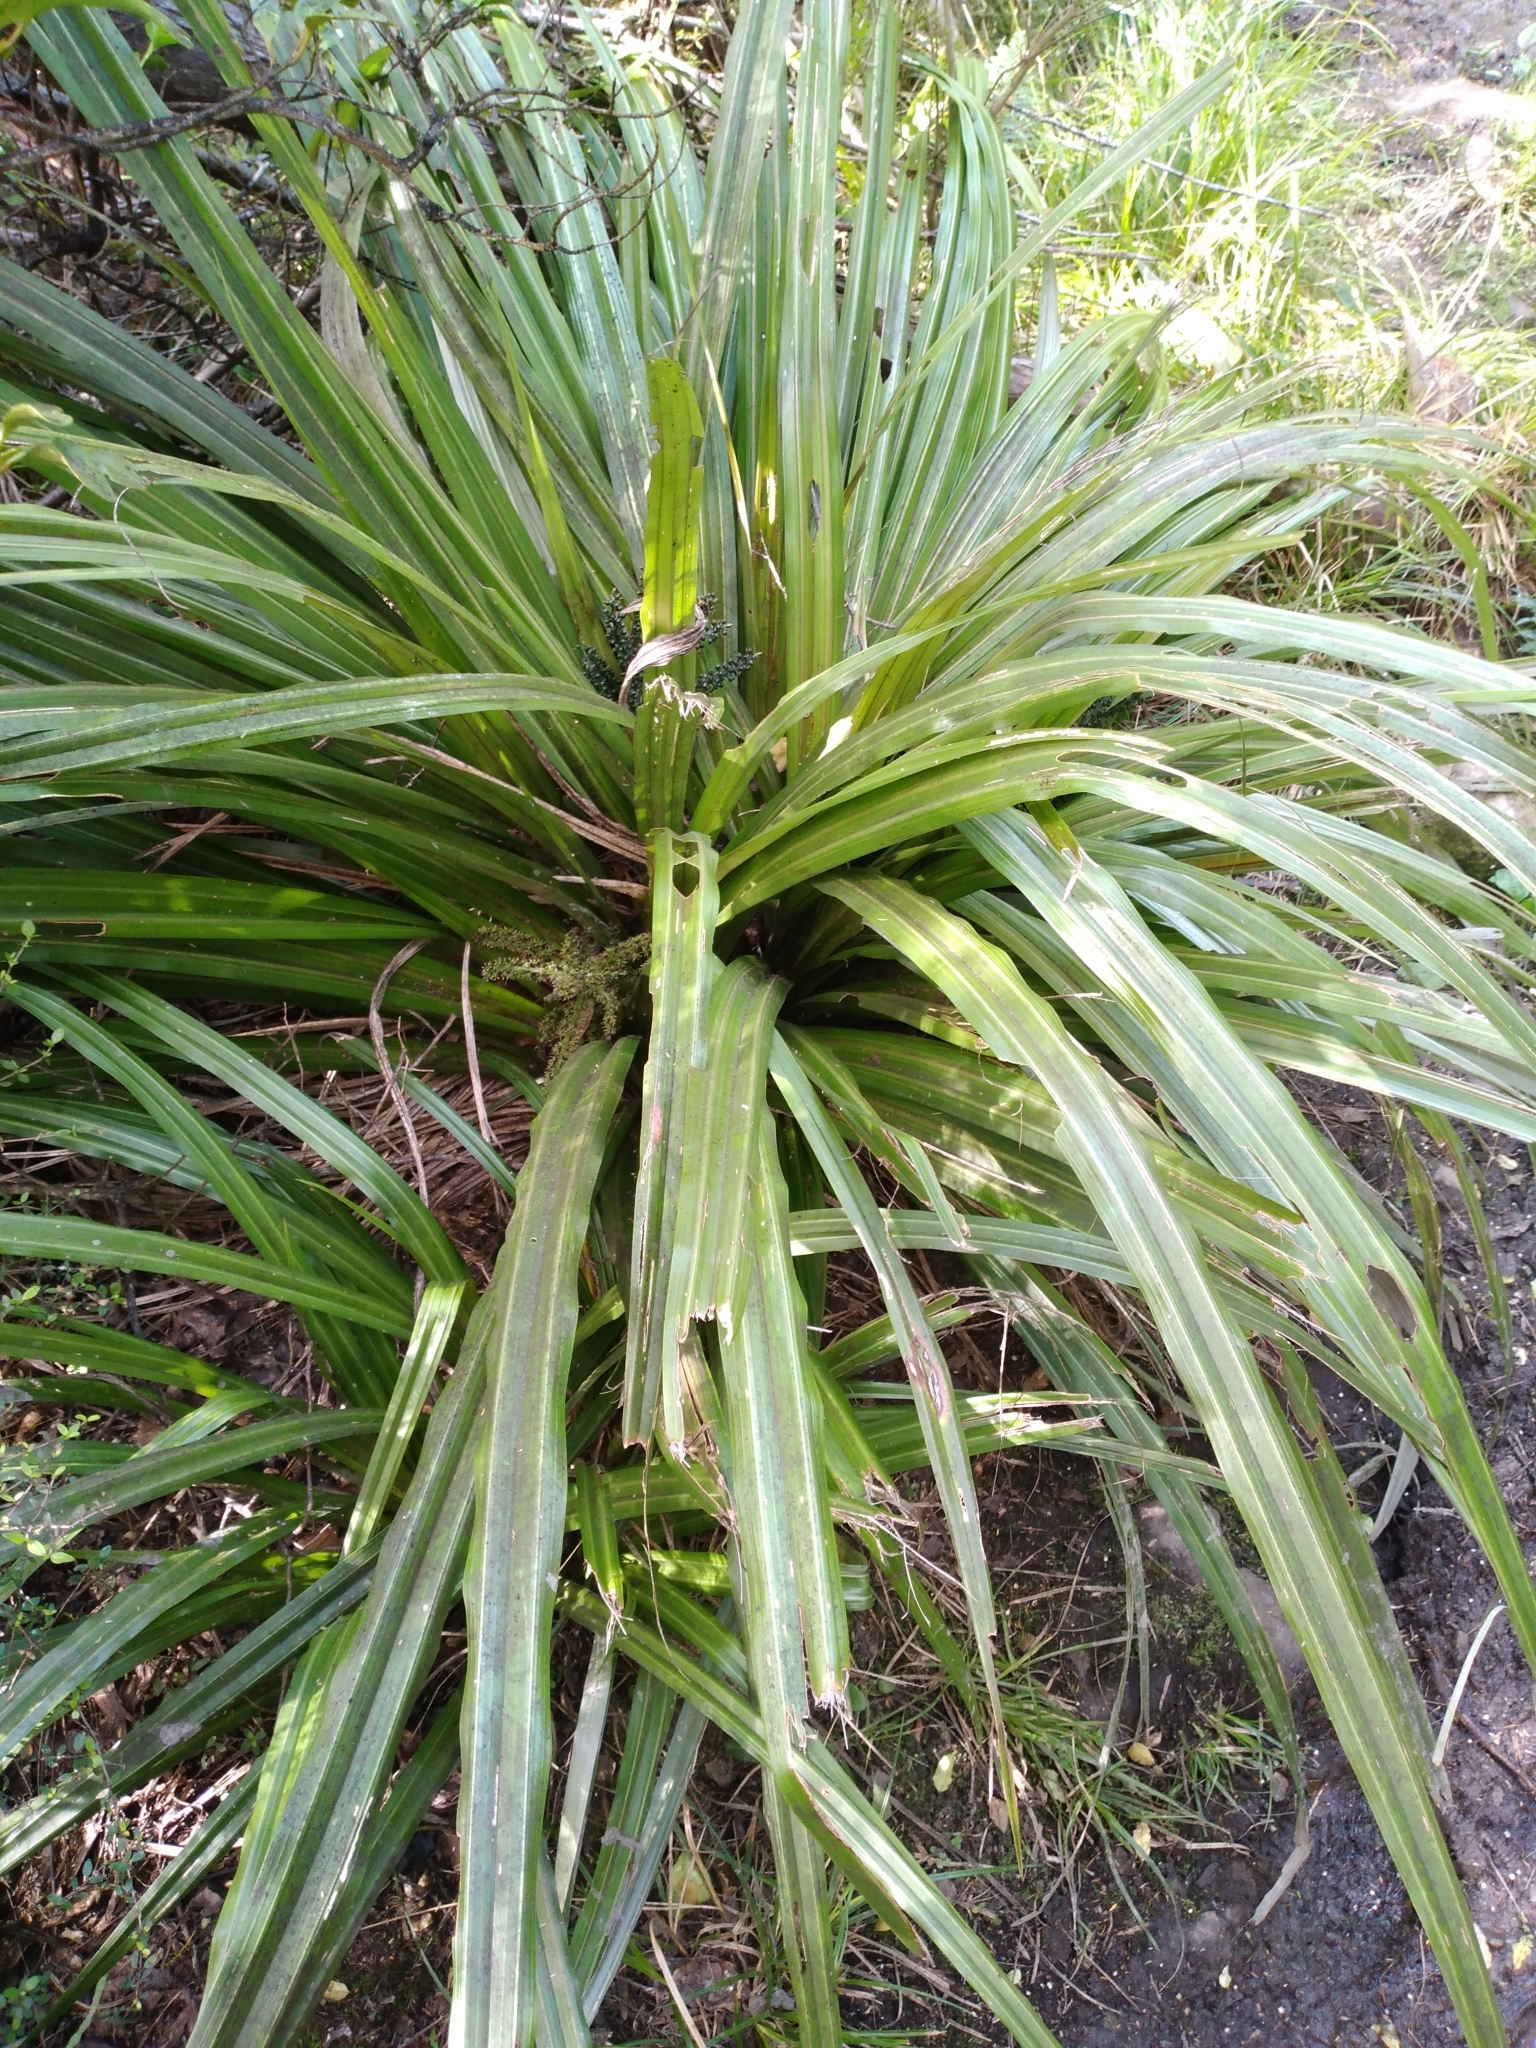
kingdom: Plantae
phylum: Tracheophyta
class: Liliopsida
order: Asparagales
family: Asteliaceae
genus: Astelia
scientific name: Astelia fragrans
